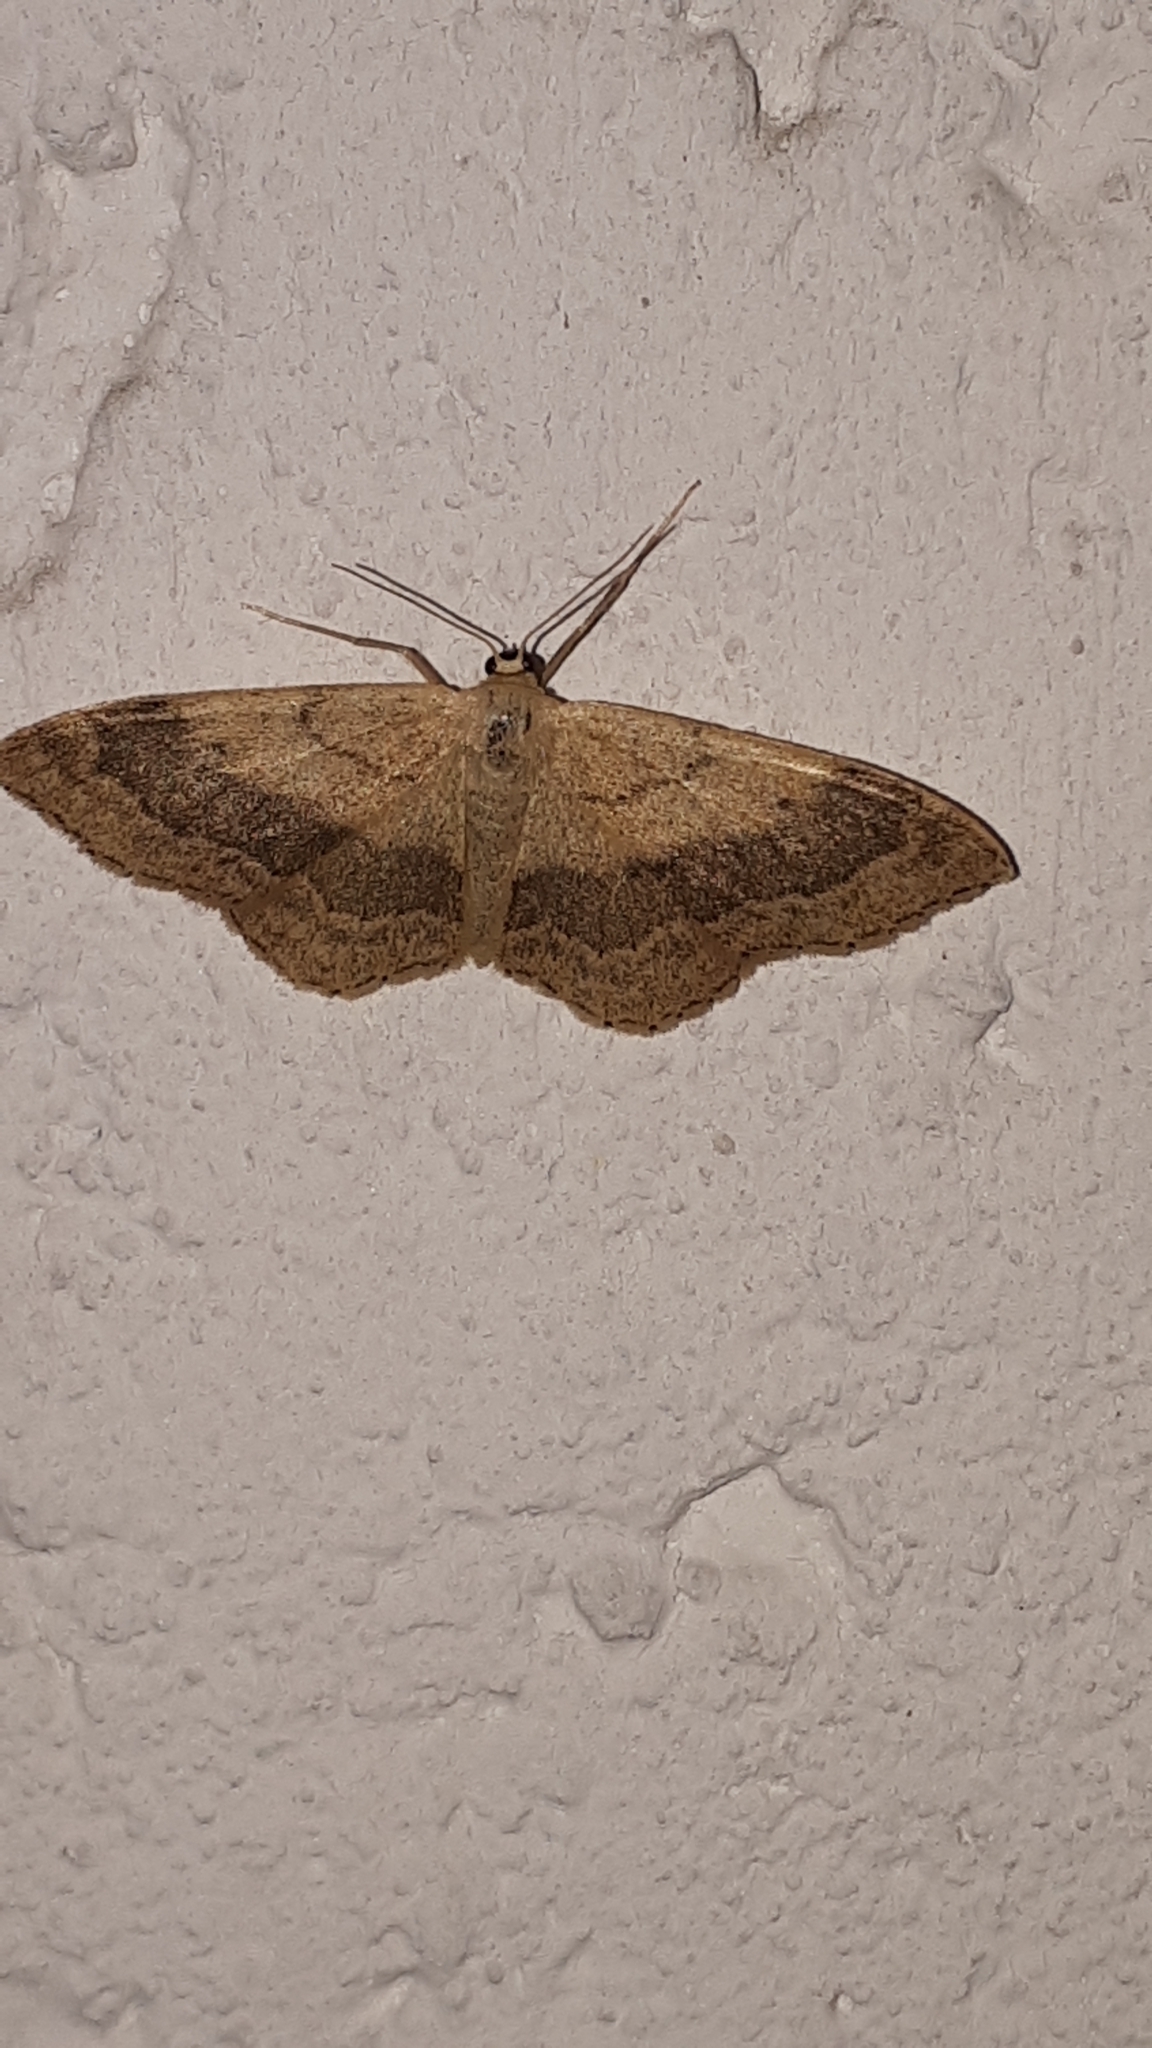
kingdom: Animalia
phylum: Arthropoda
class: Insecta
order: Lepidoptera
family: Geometridae
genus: Idaea
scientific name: Idaea aversata
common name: Riband wave
